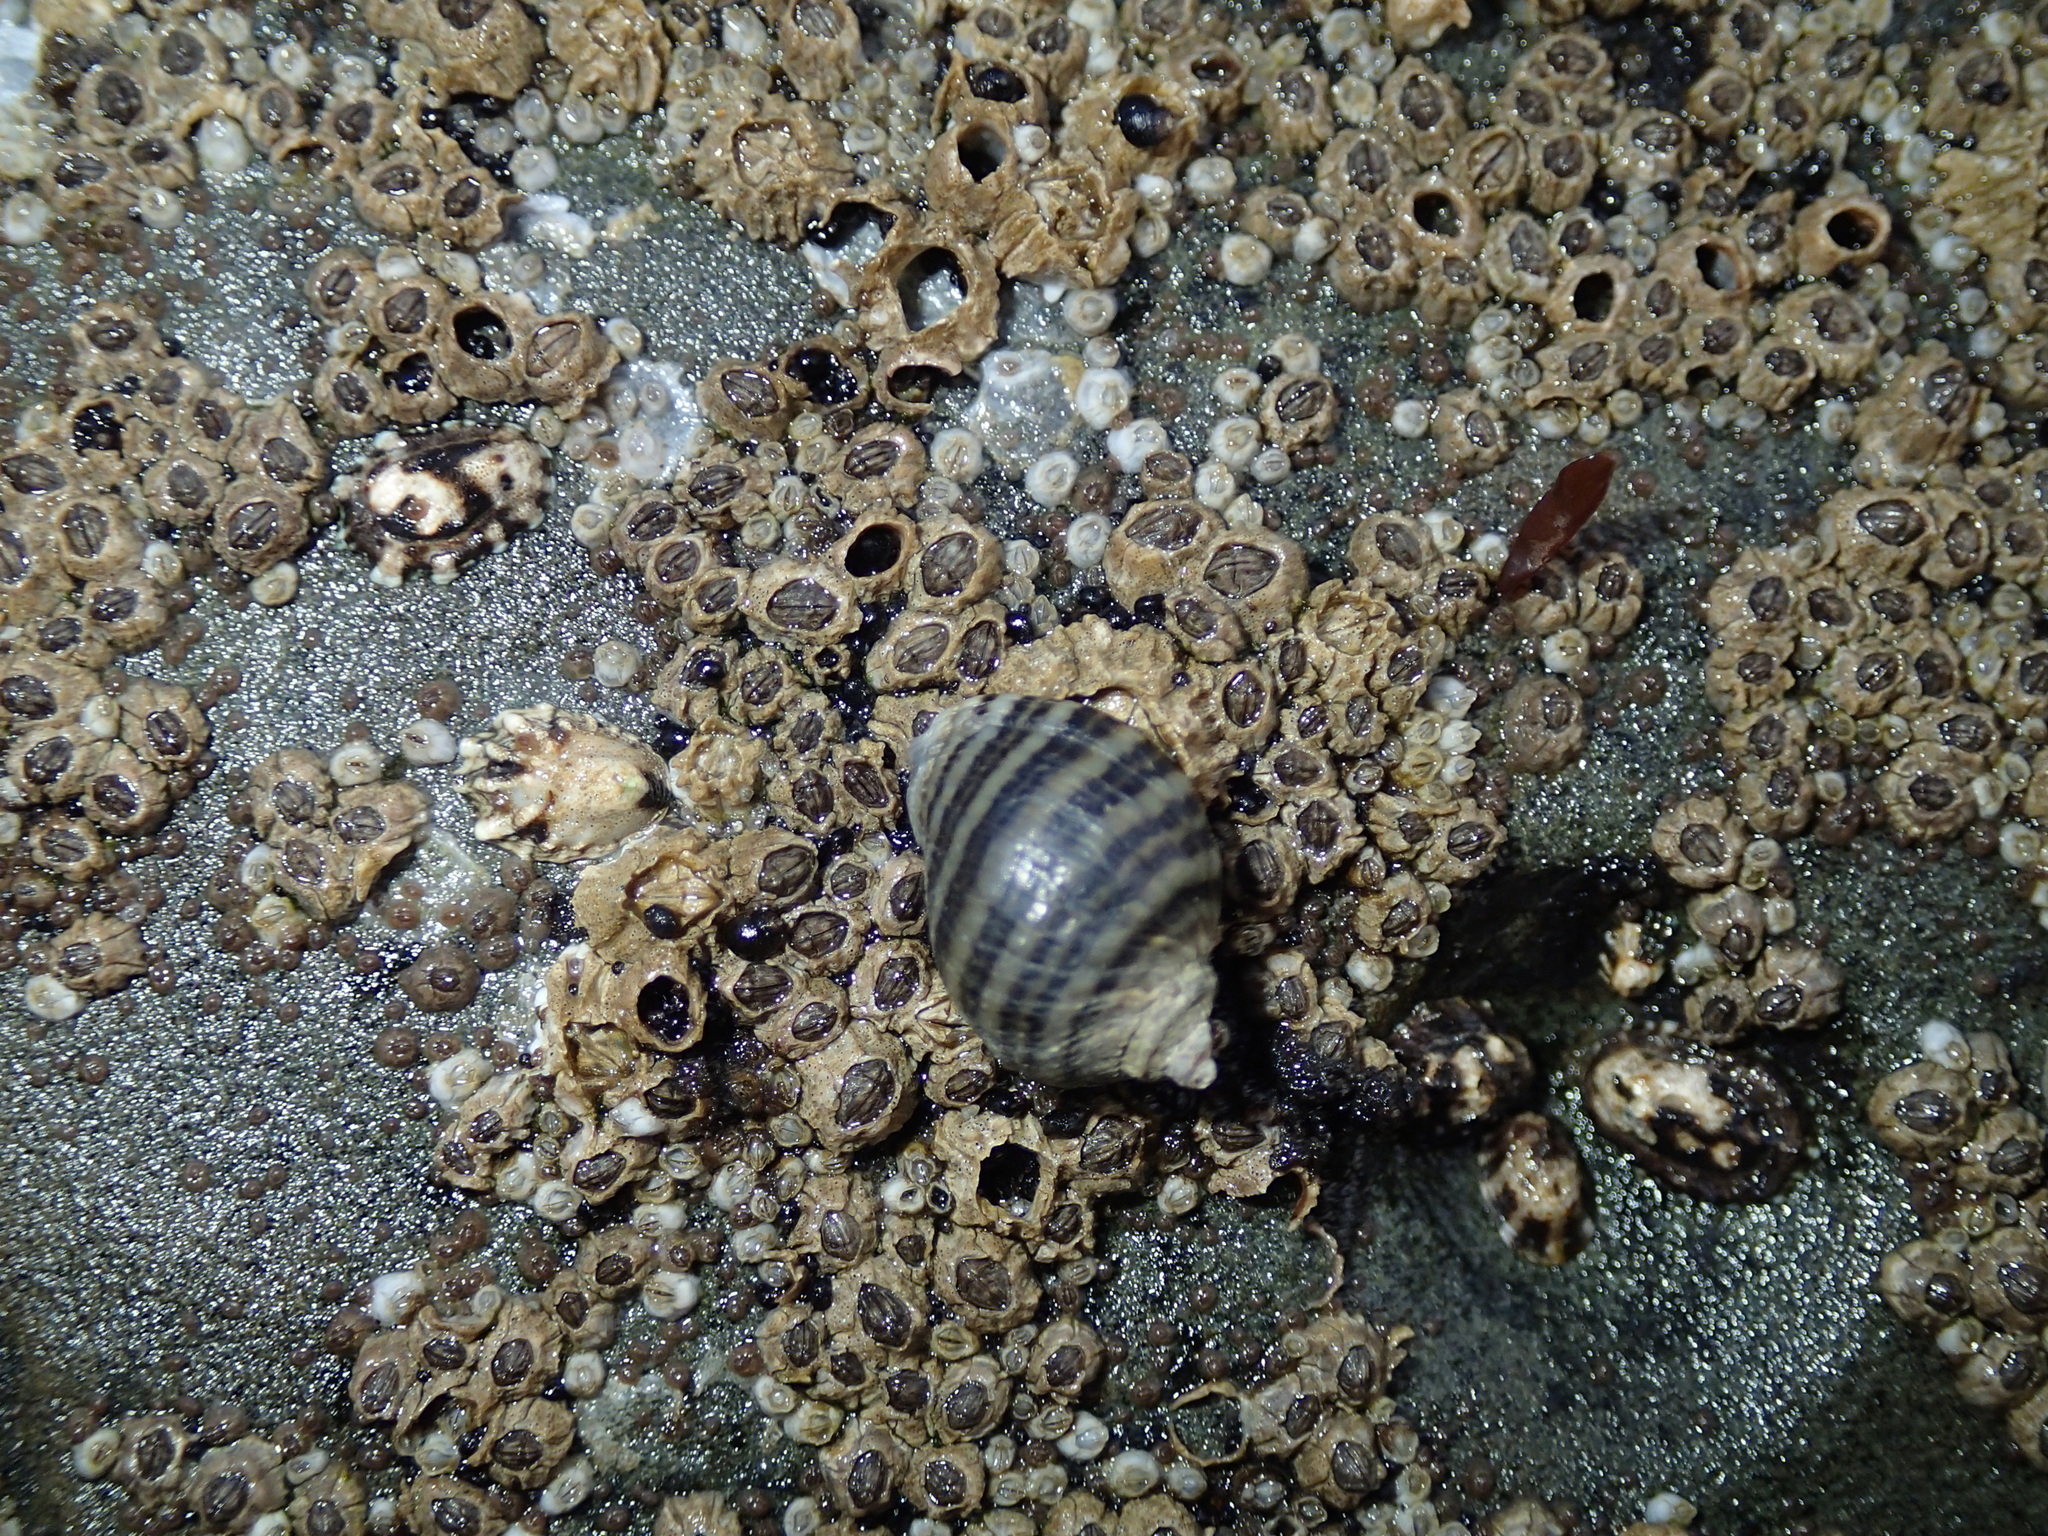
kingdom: Animalia
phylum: Arthropoda
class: Maxillopoda
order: Sessilia
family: Balanidae
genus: Balanus
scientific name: Balanus glandula
